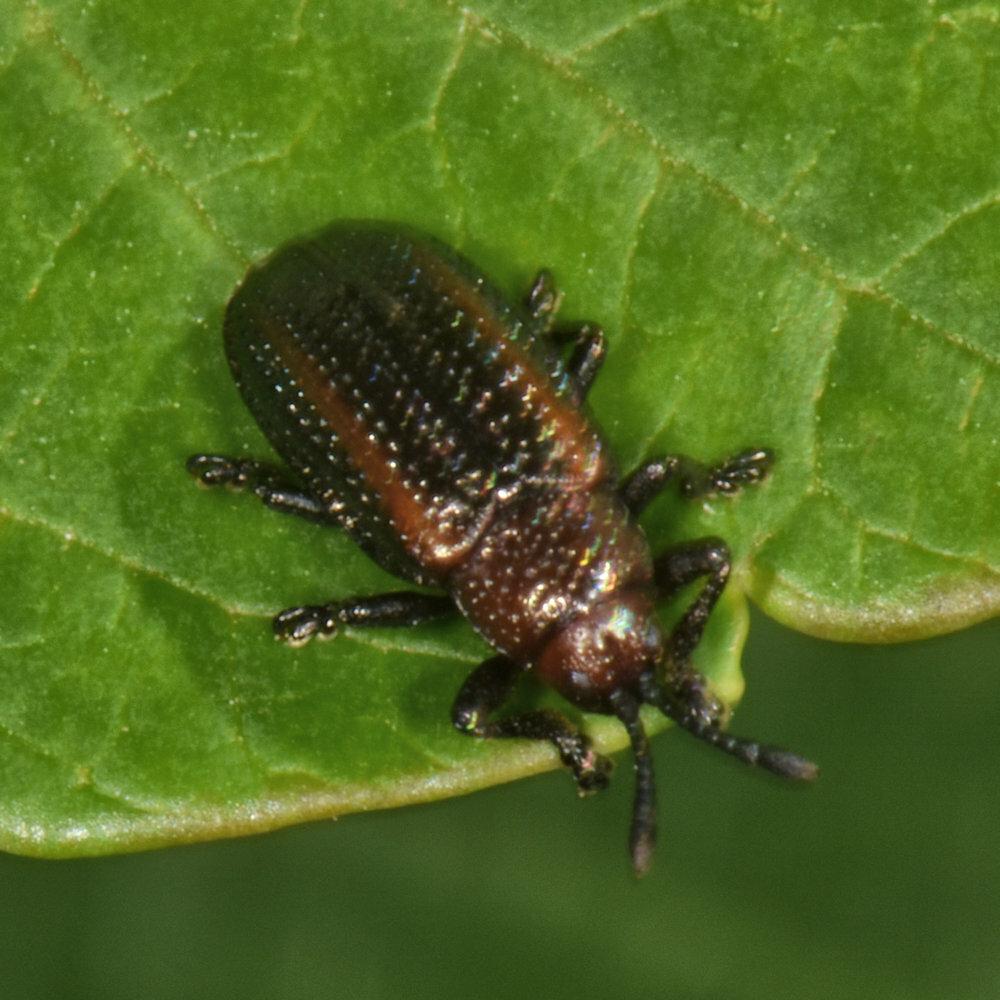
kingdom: Animalia
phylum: Arthropoda
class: Insecta
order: Coleoptera
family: Chrysomelidae
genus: Microrhopala
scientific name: Microrhopala vittata
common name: Goldenrod leaf miner beetle
